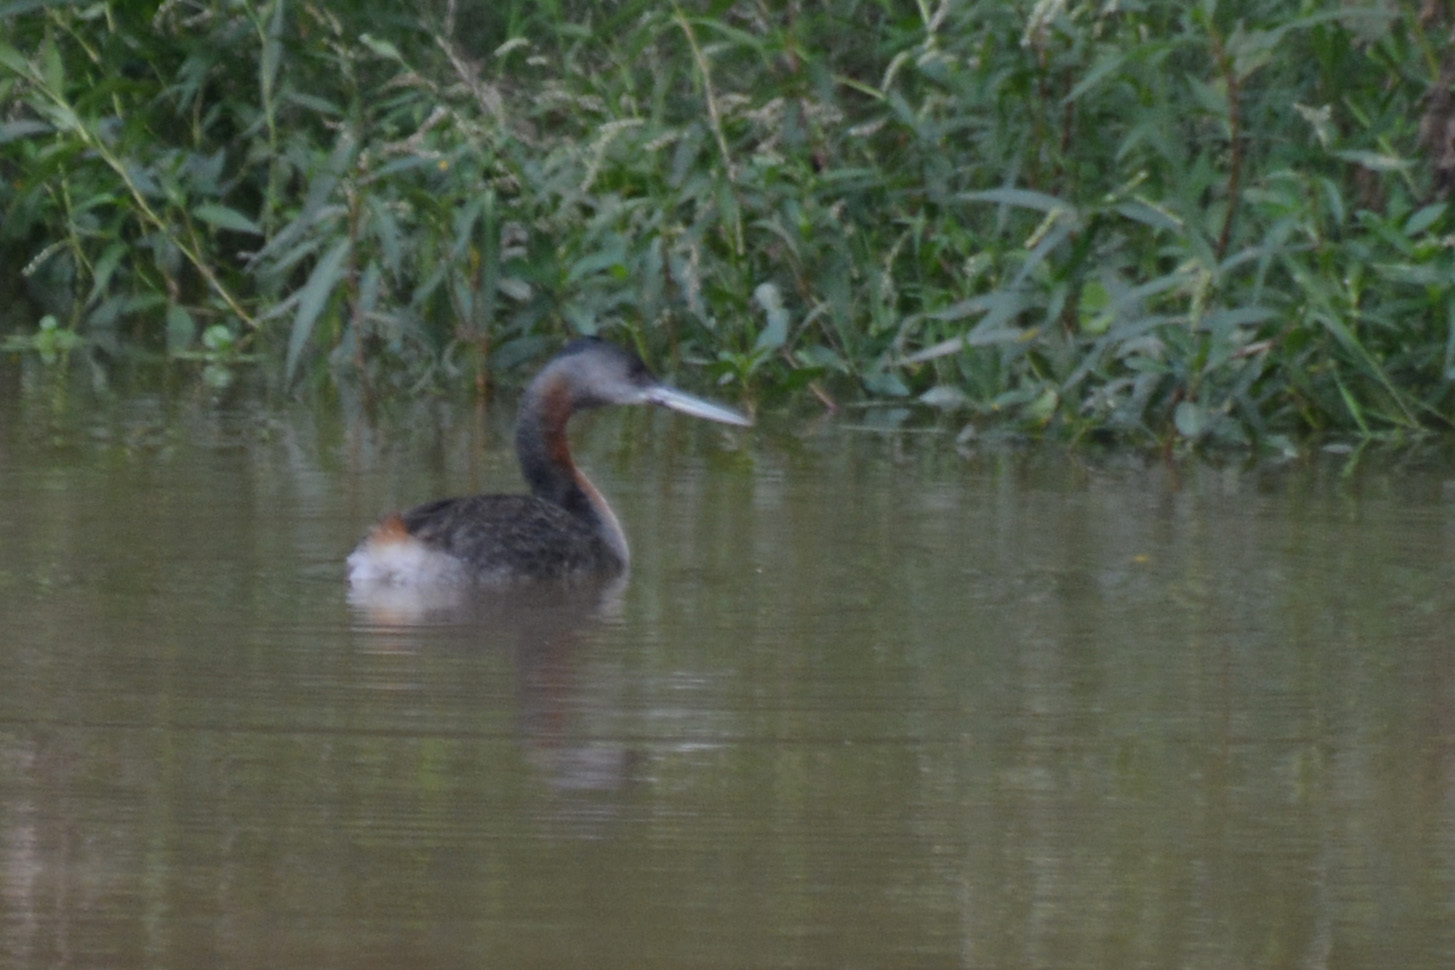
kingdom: Animalia
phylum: Chordata
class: Aves
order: Podicipediformes
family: Podicipedidae
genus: Podiceps
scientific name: Podiceps major
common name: Great grebe
